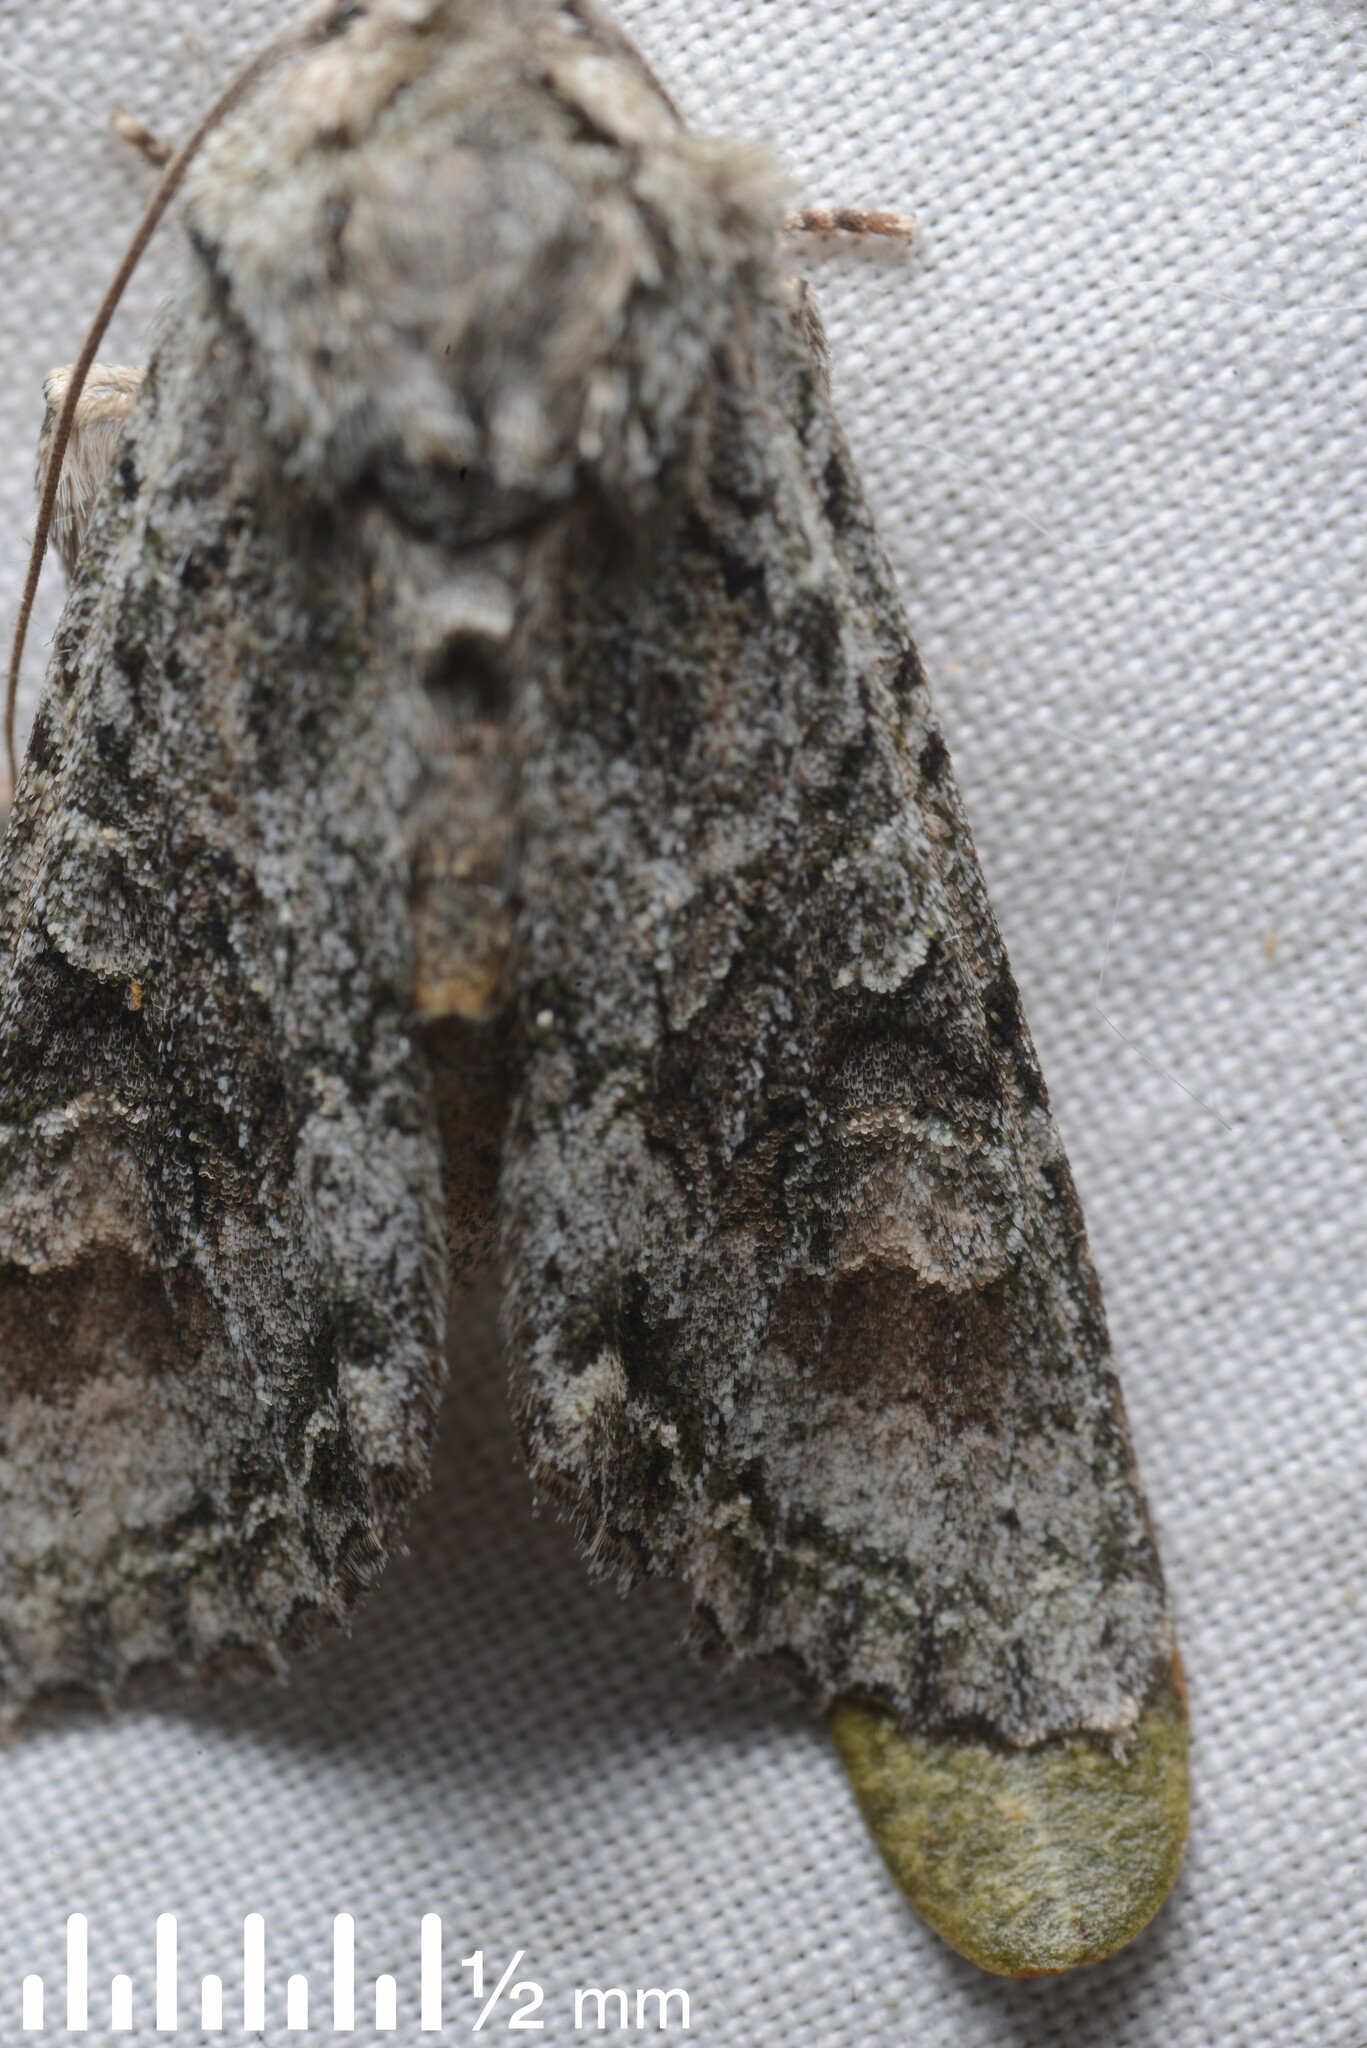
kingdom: Animalia
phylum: Arthropoda
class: Insecta
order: Lepidoptera
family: Noctuidae
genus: Ichneutica
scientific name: Ichneutica mutans
